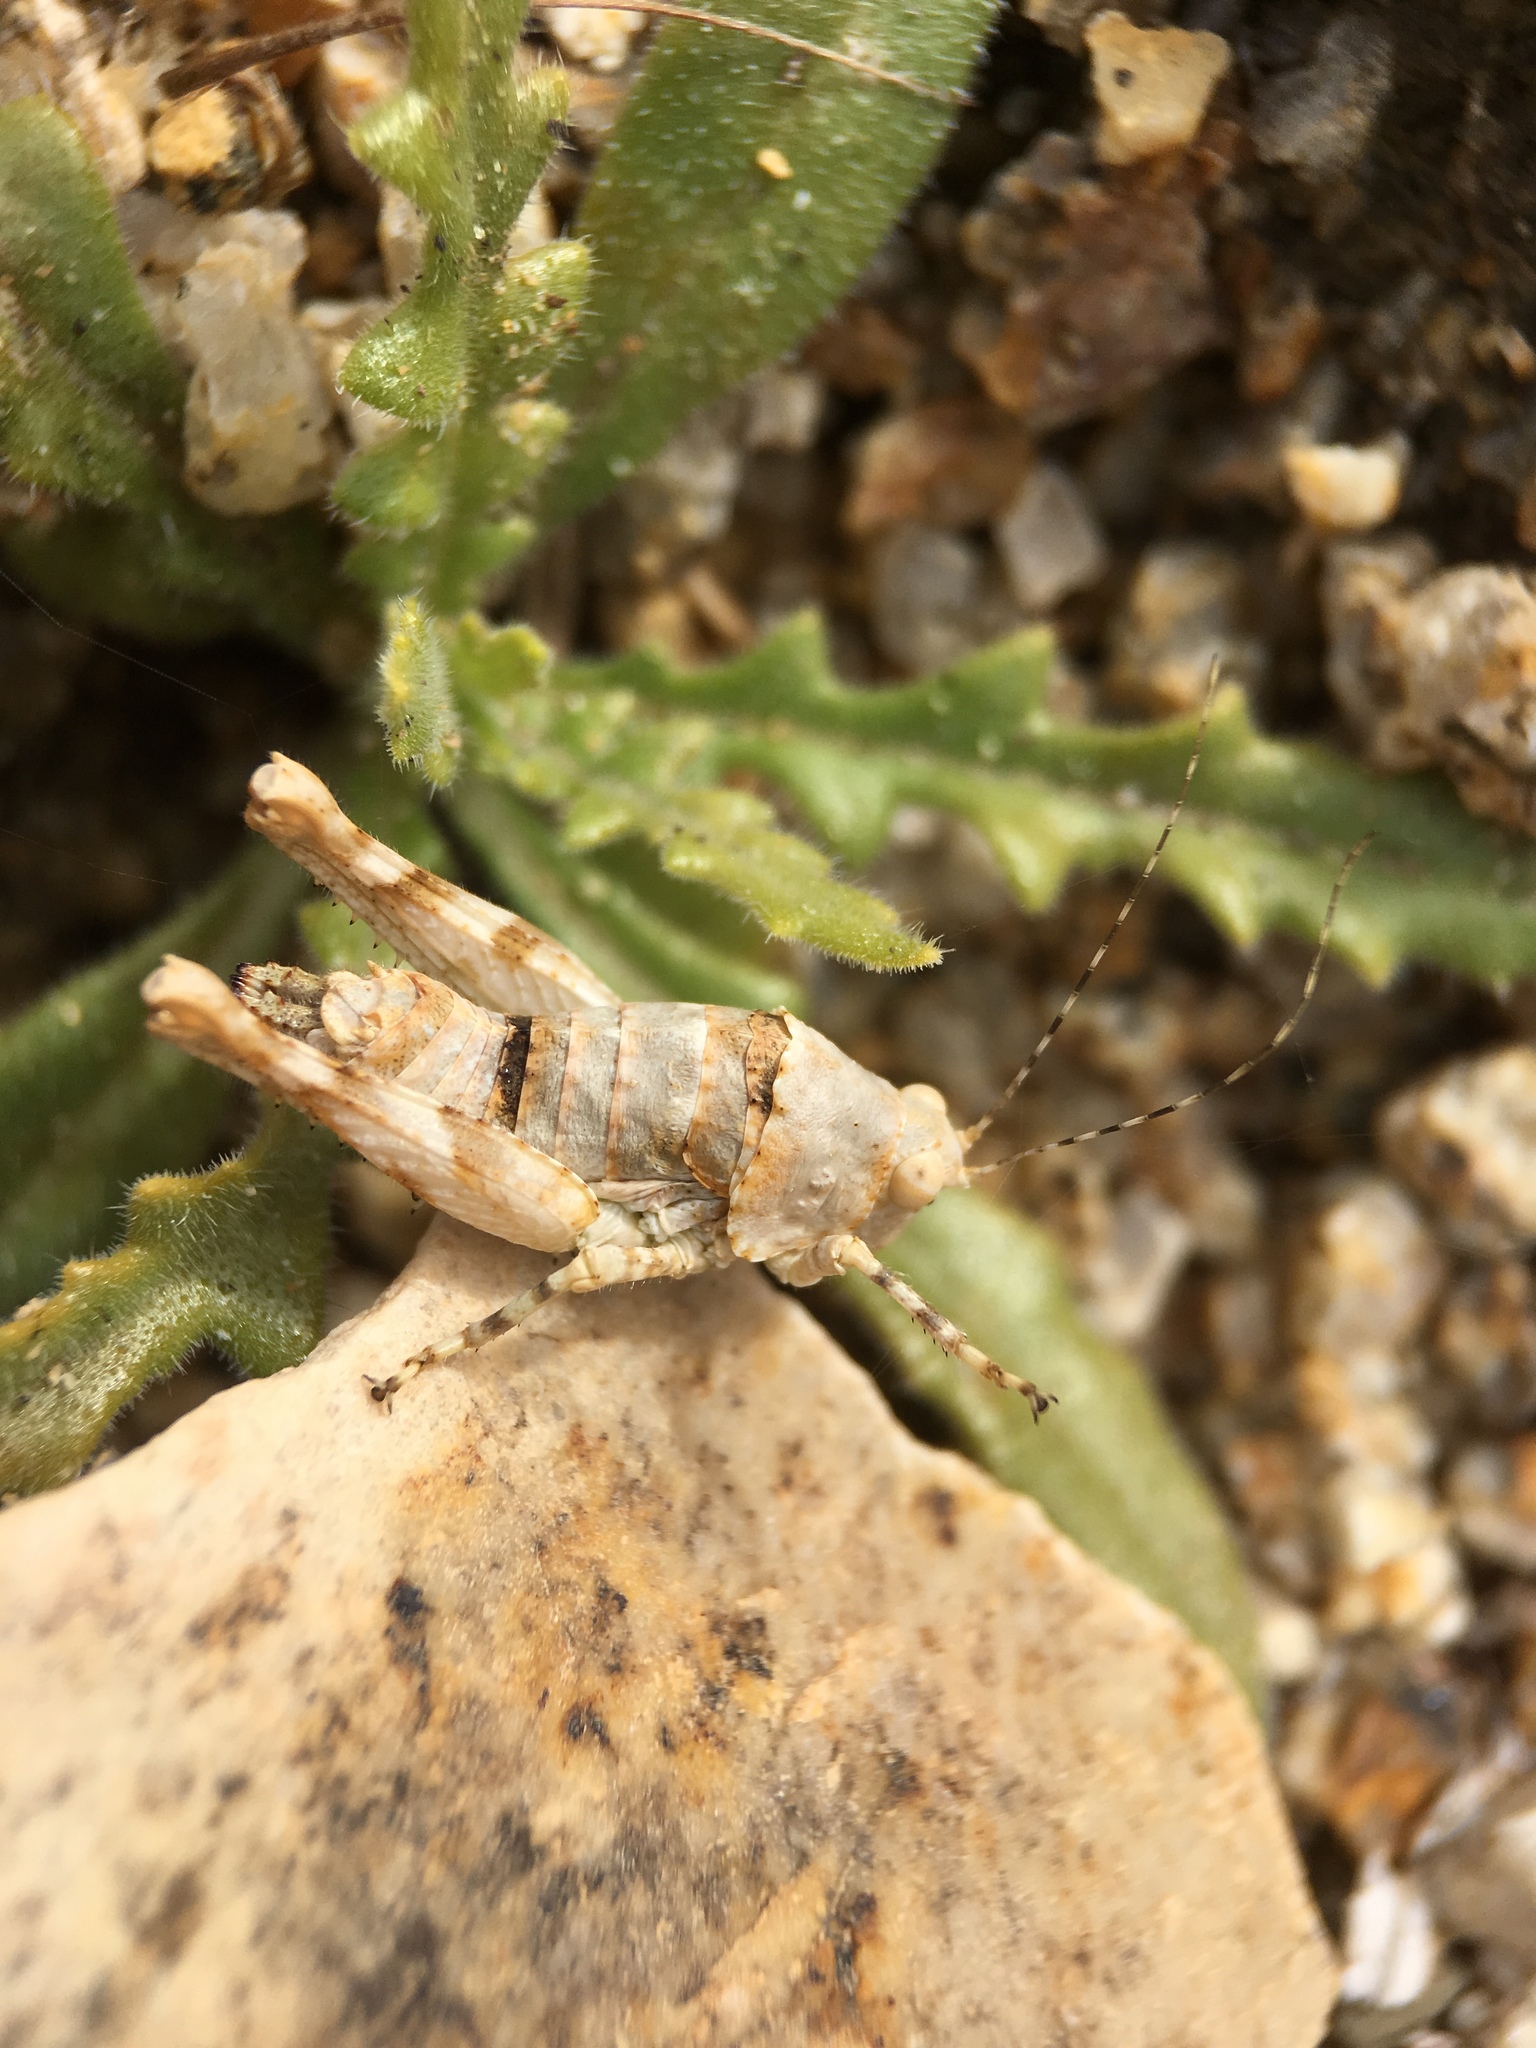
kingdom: Animalia
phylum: Arthropoda
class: Insecta
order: Orthoptera
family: Tanaoceridae
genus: Tanaocerus
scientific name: Tanaocerus koebelei
